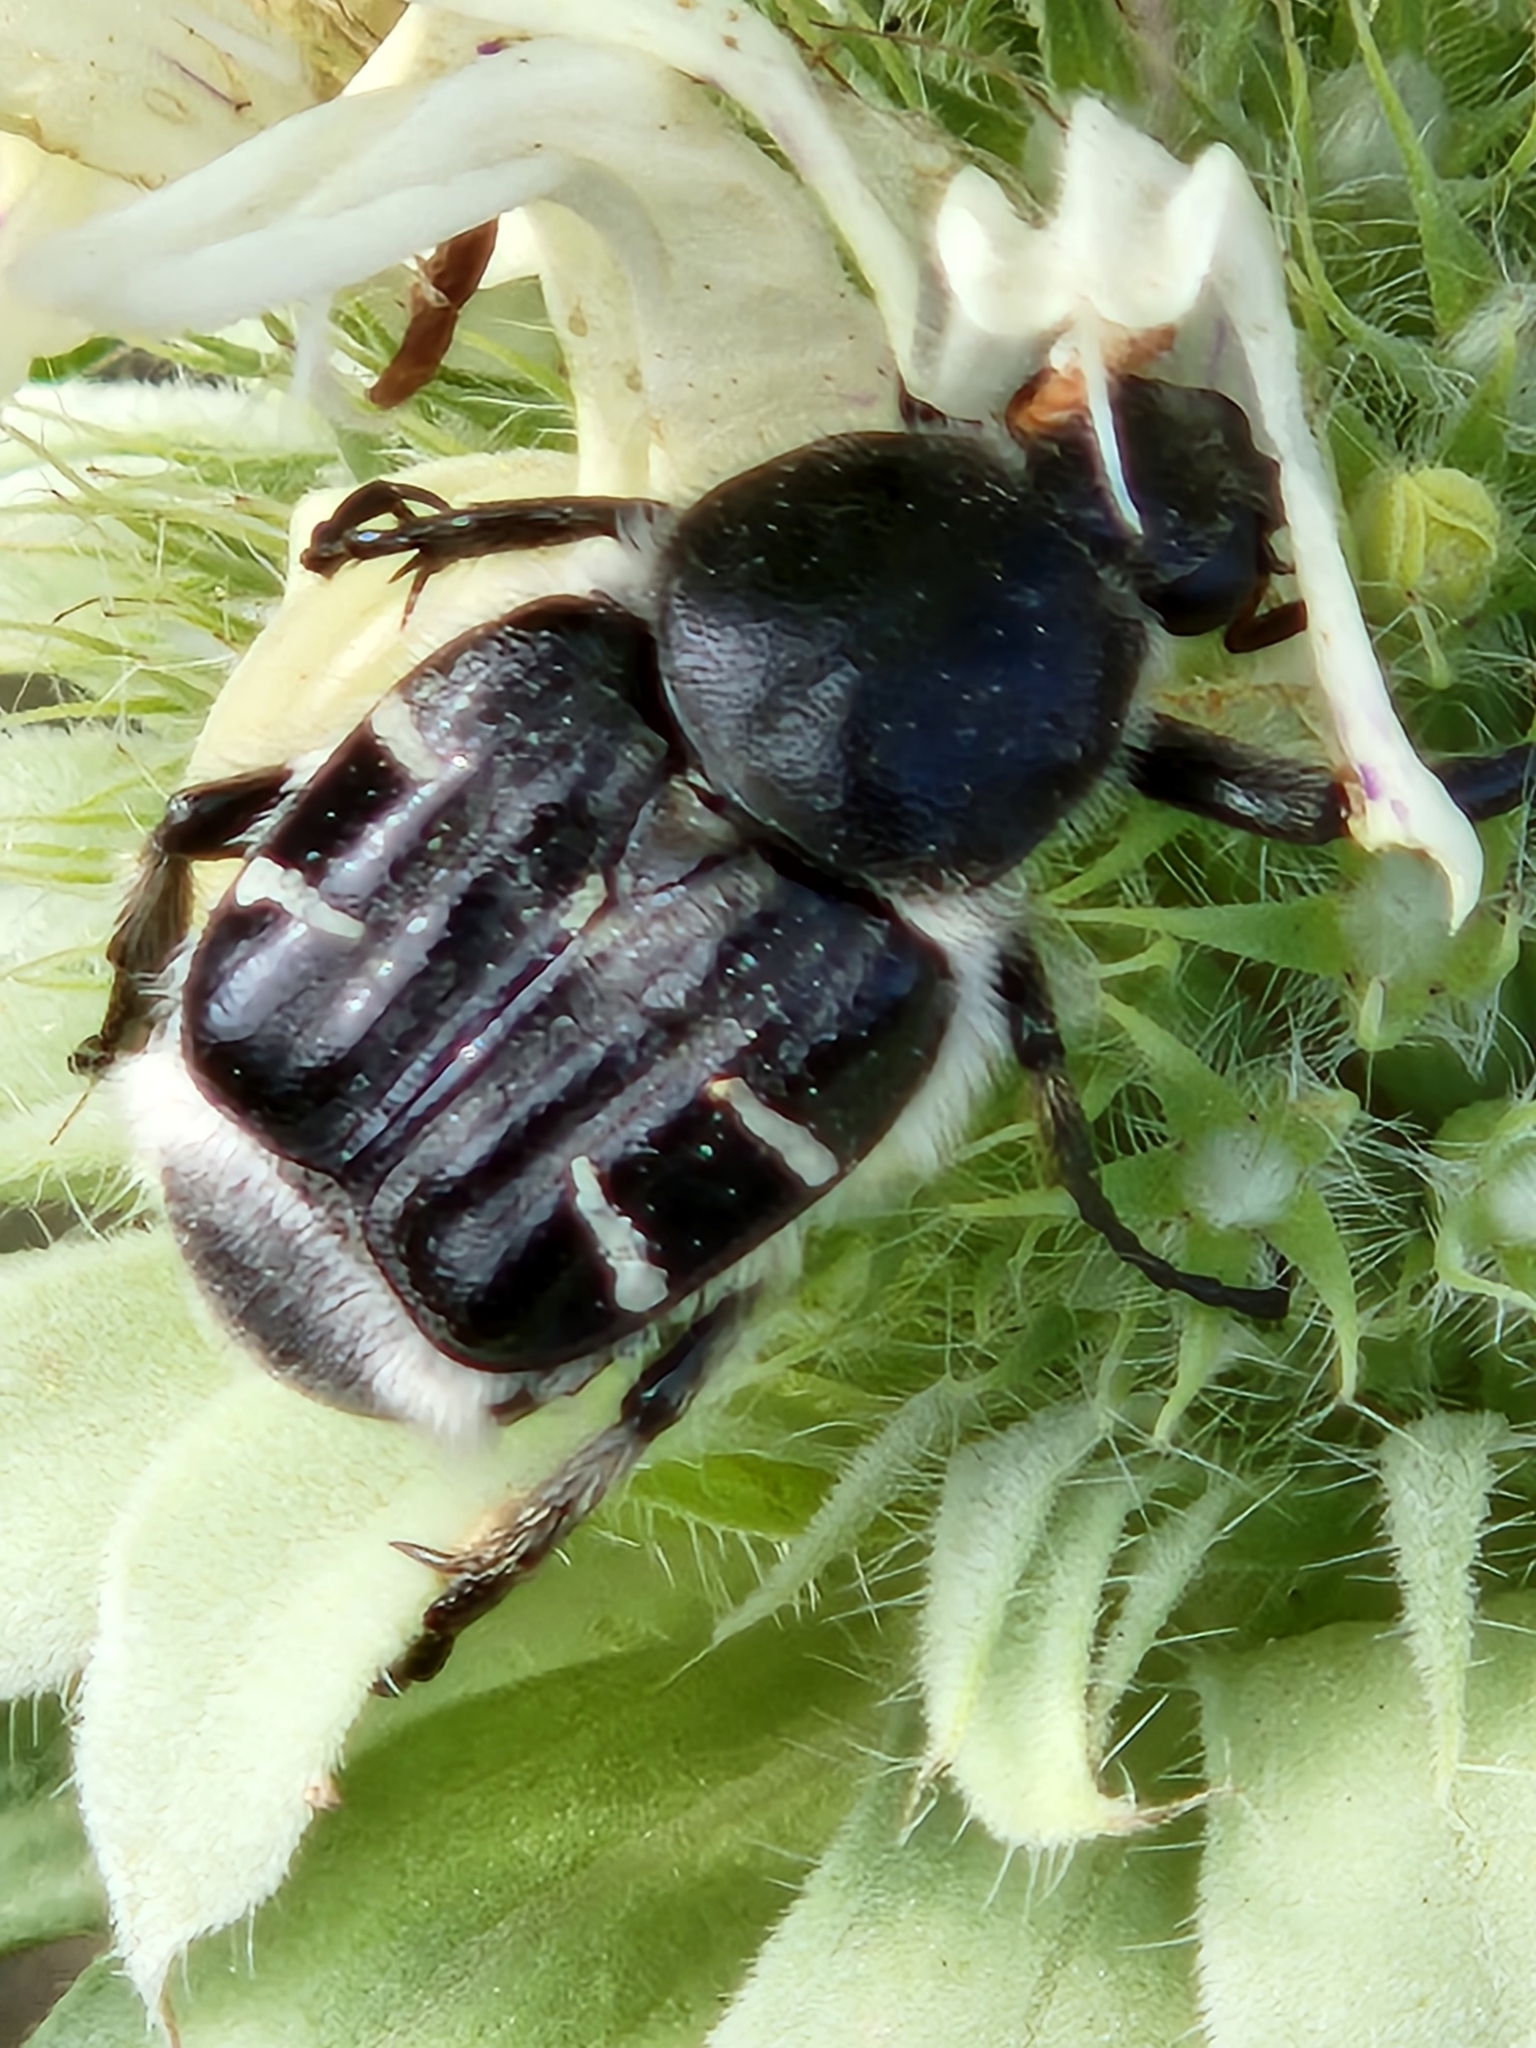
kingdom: Animalia
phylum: Arthropoda
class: Insecta
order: Coleoptera
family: Scarabaeidae
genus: Trichiotinus
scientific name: Trichiotinus texanus
